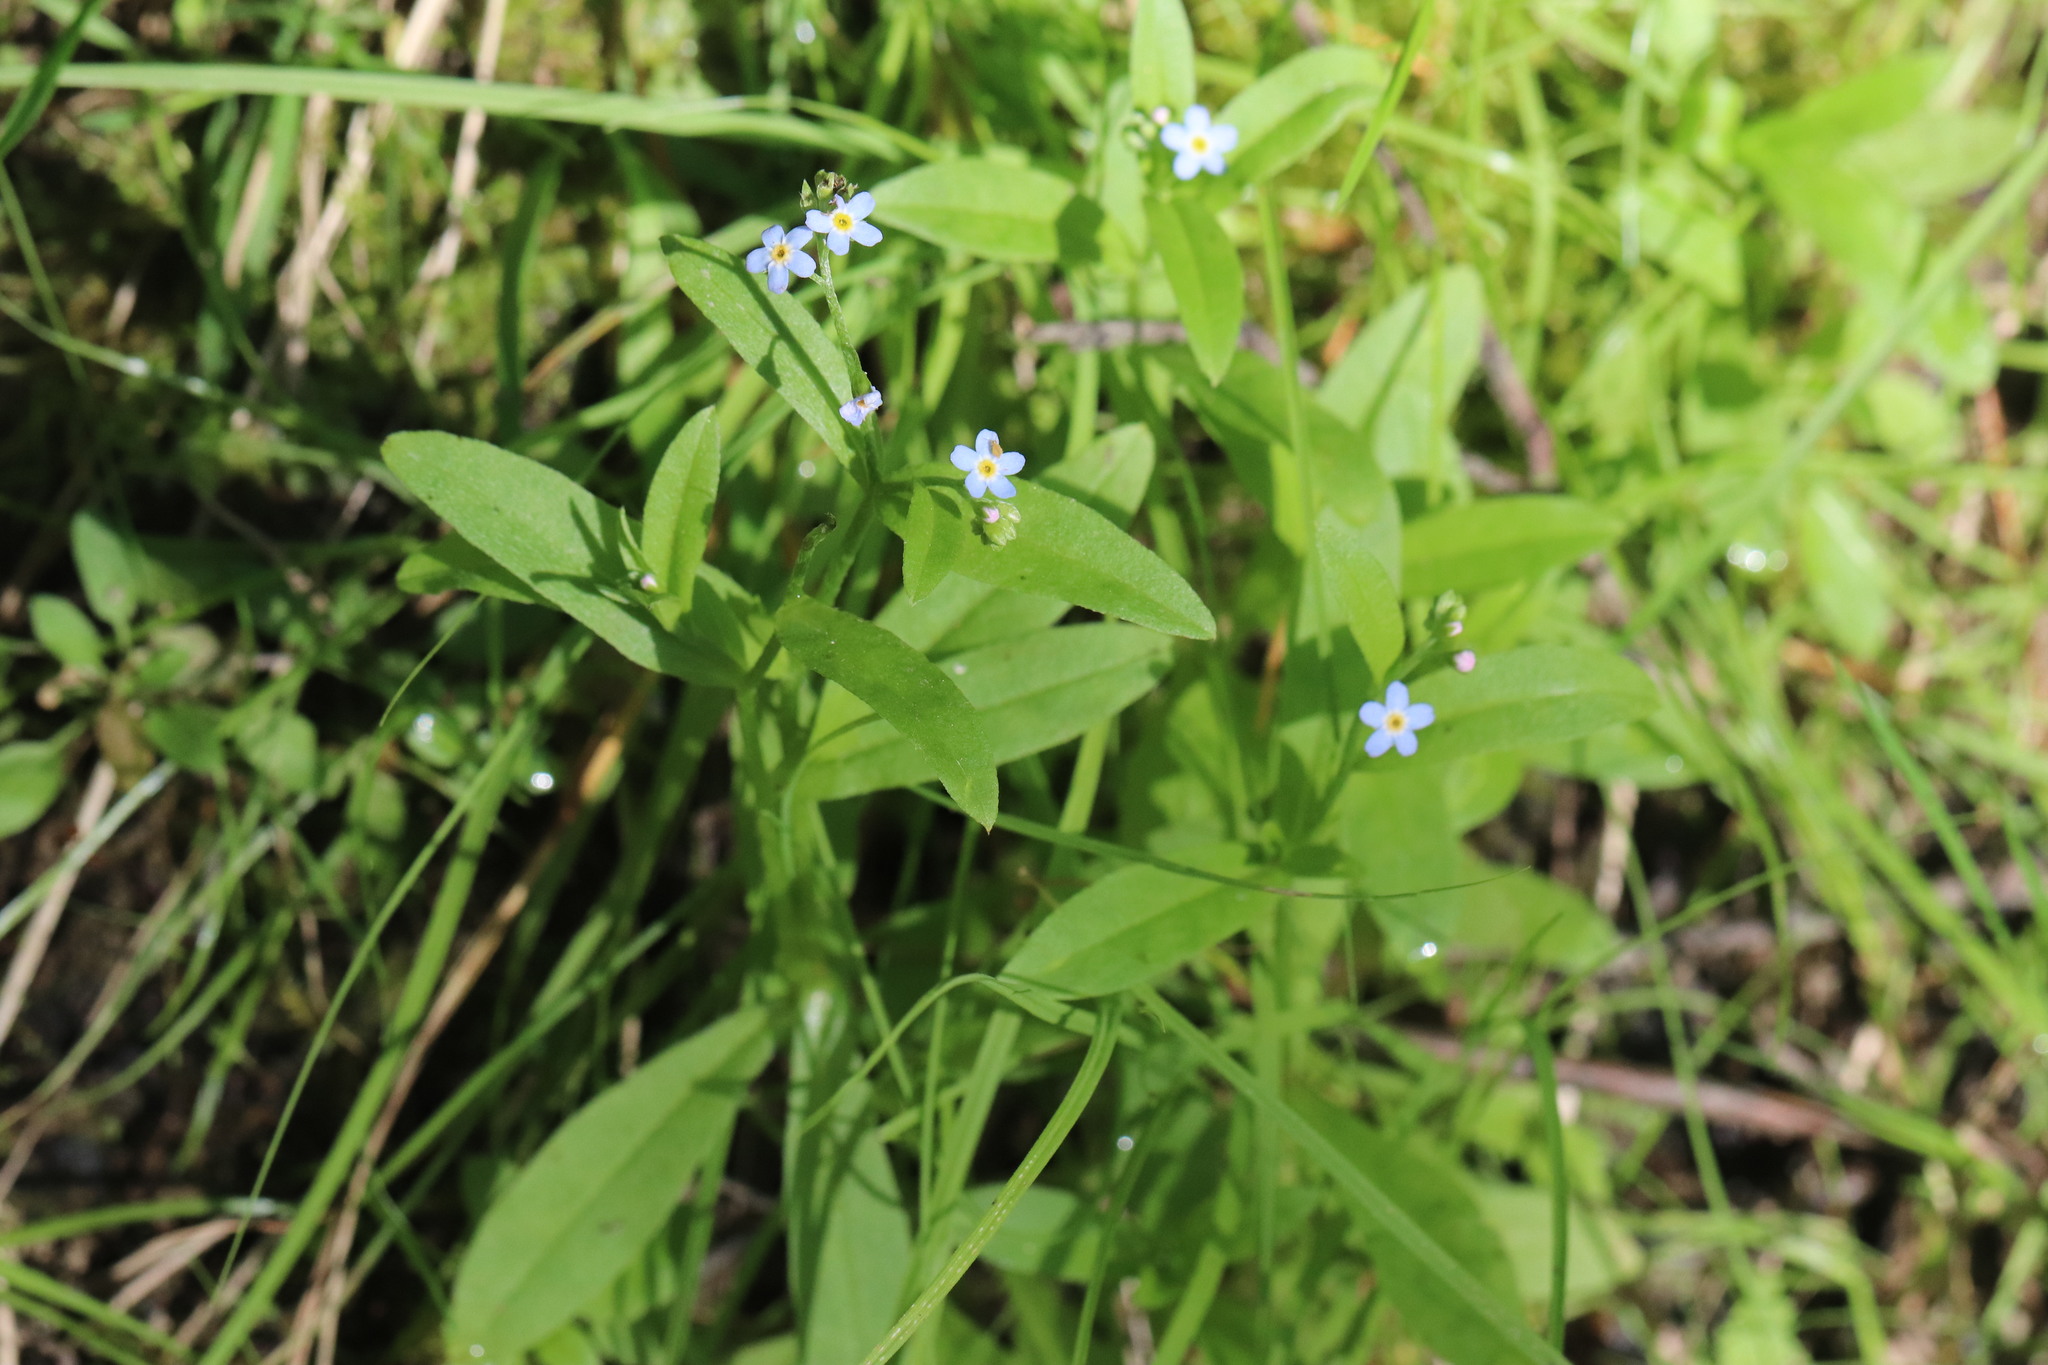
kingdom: Plantae
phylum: Tracheophyta
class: Magnoliopsida
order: Boraginales
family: Boraginaceae
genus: Myosotis
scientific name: Myosotis scorpioides
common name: Water forget-me-not
